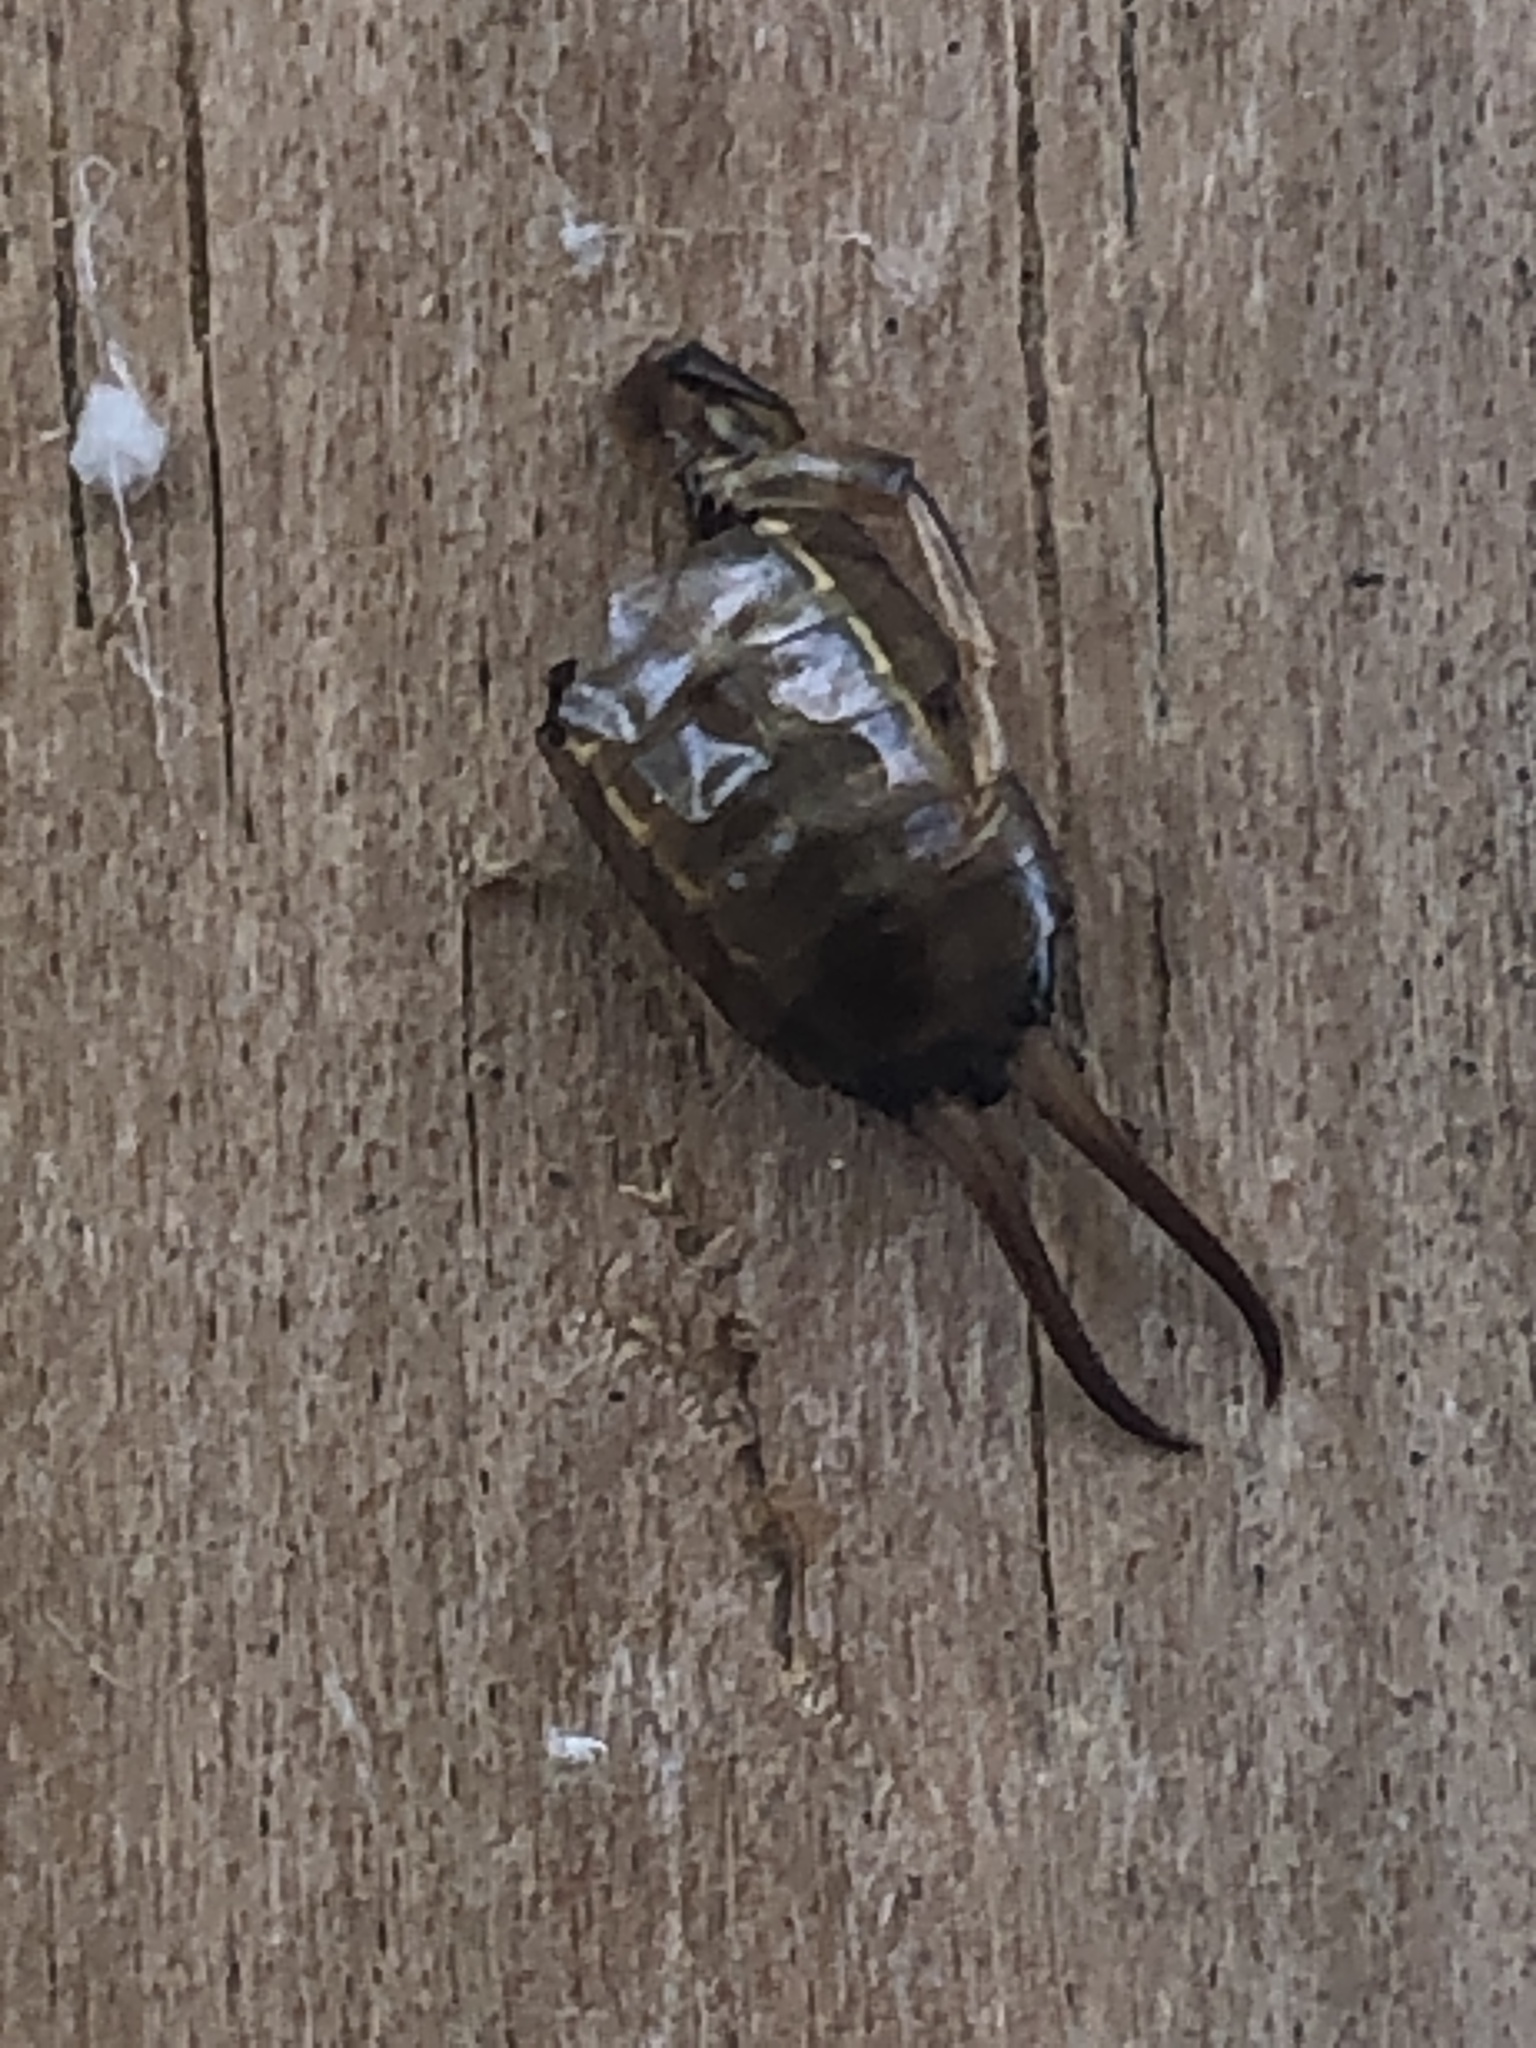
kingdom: Animalia
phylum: Arthropoda
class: Insecta
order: Dermaptera
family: Forficulidae
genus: Forficula
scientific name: Forficula
